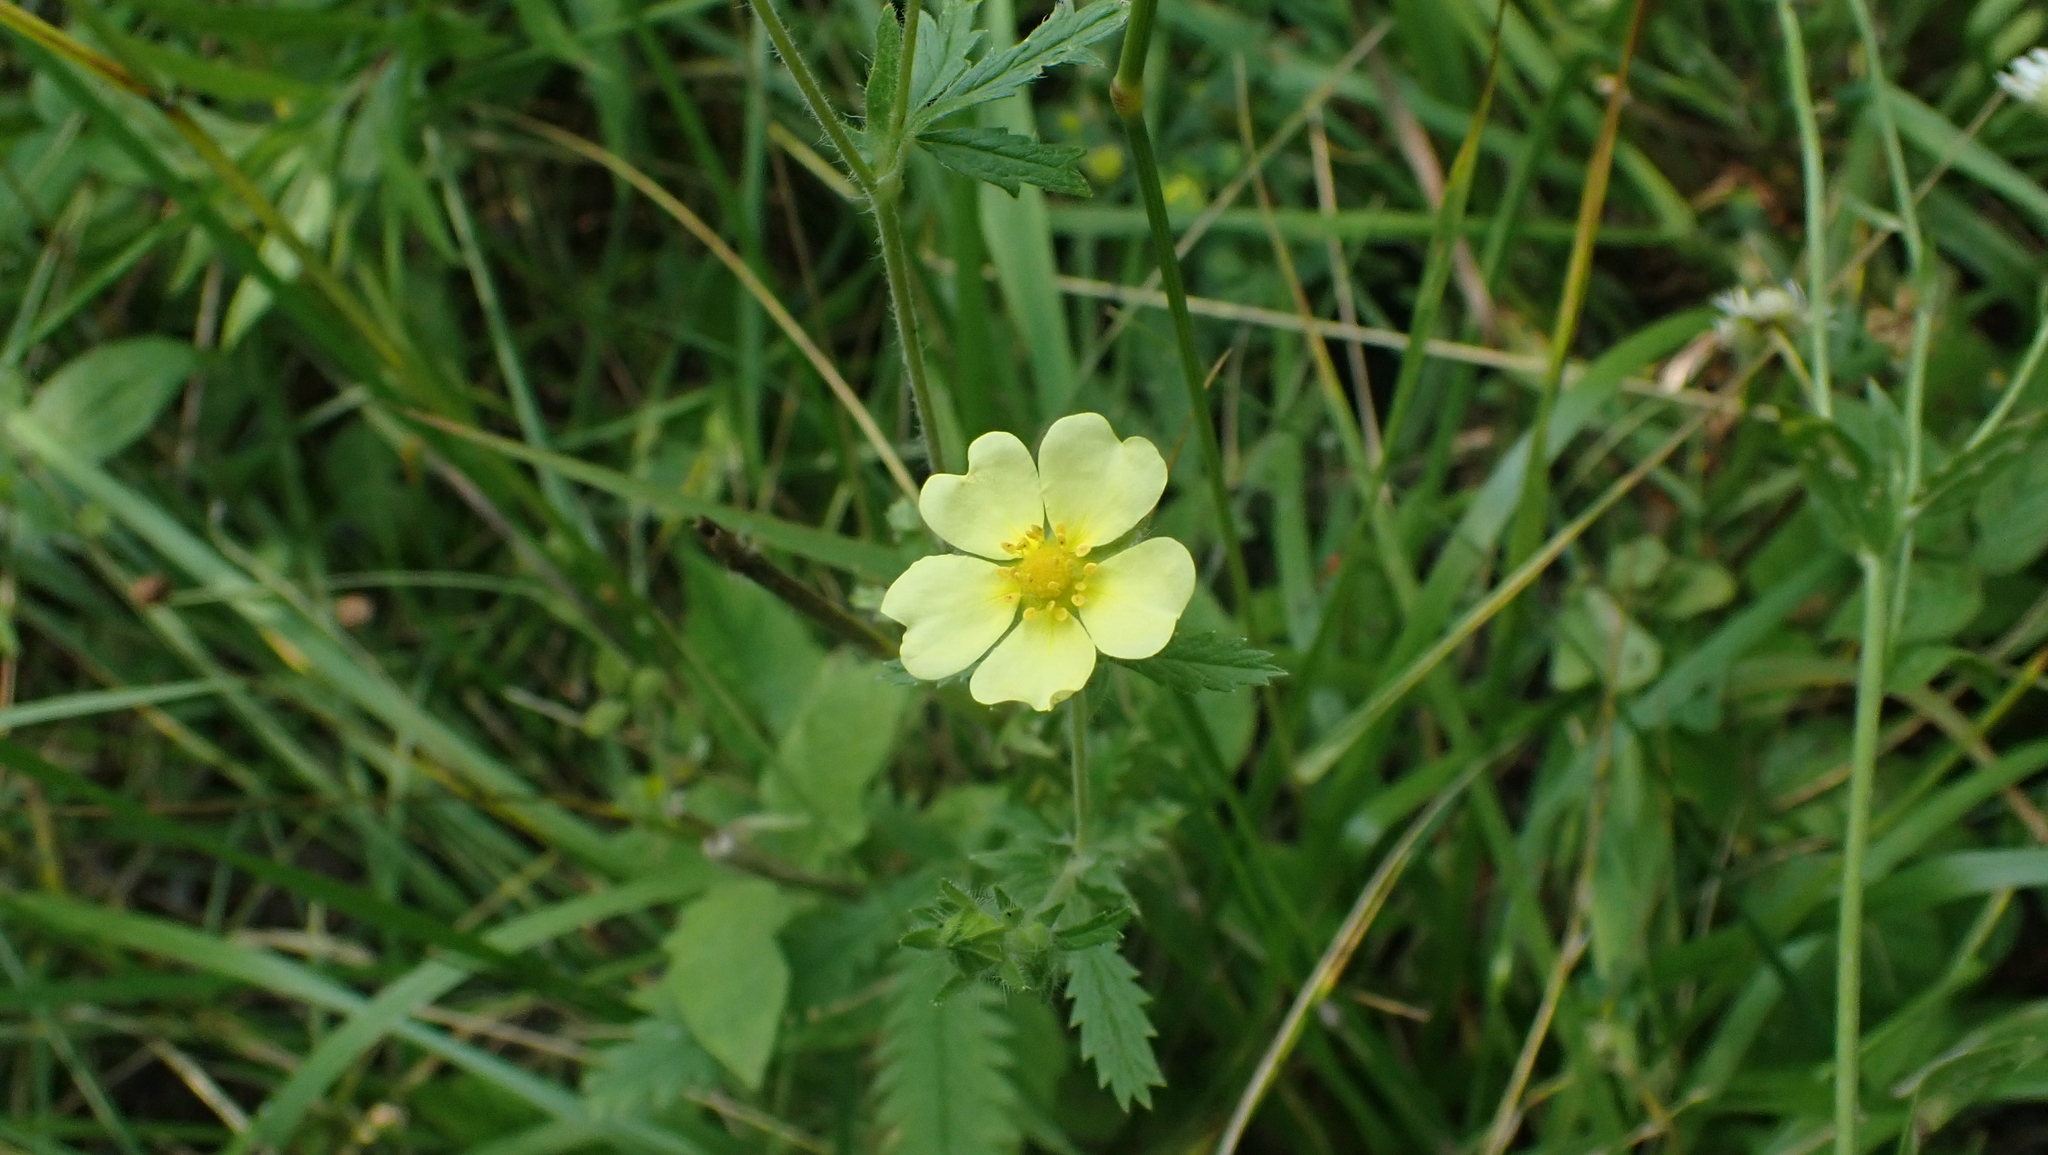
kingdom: Plantae
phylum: Tracheophyta
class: Magnoliopsida
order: Rosales
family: Rosaceae
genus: Potentilla
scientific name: Potentilla recta
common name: Sulphur cinquefoil
